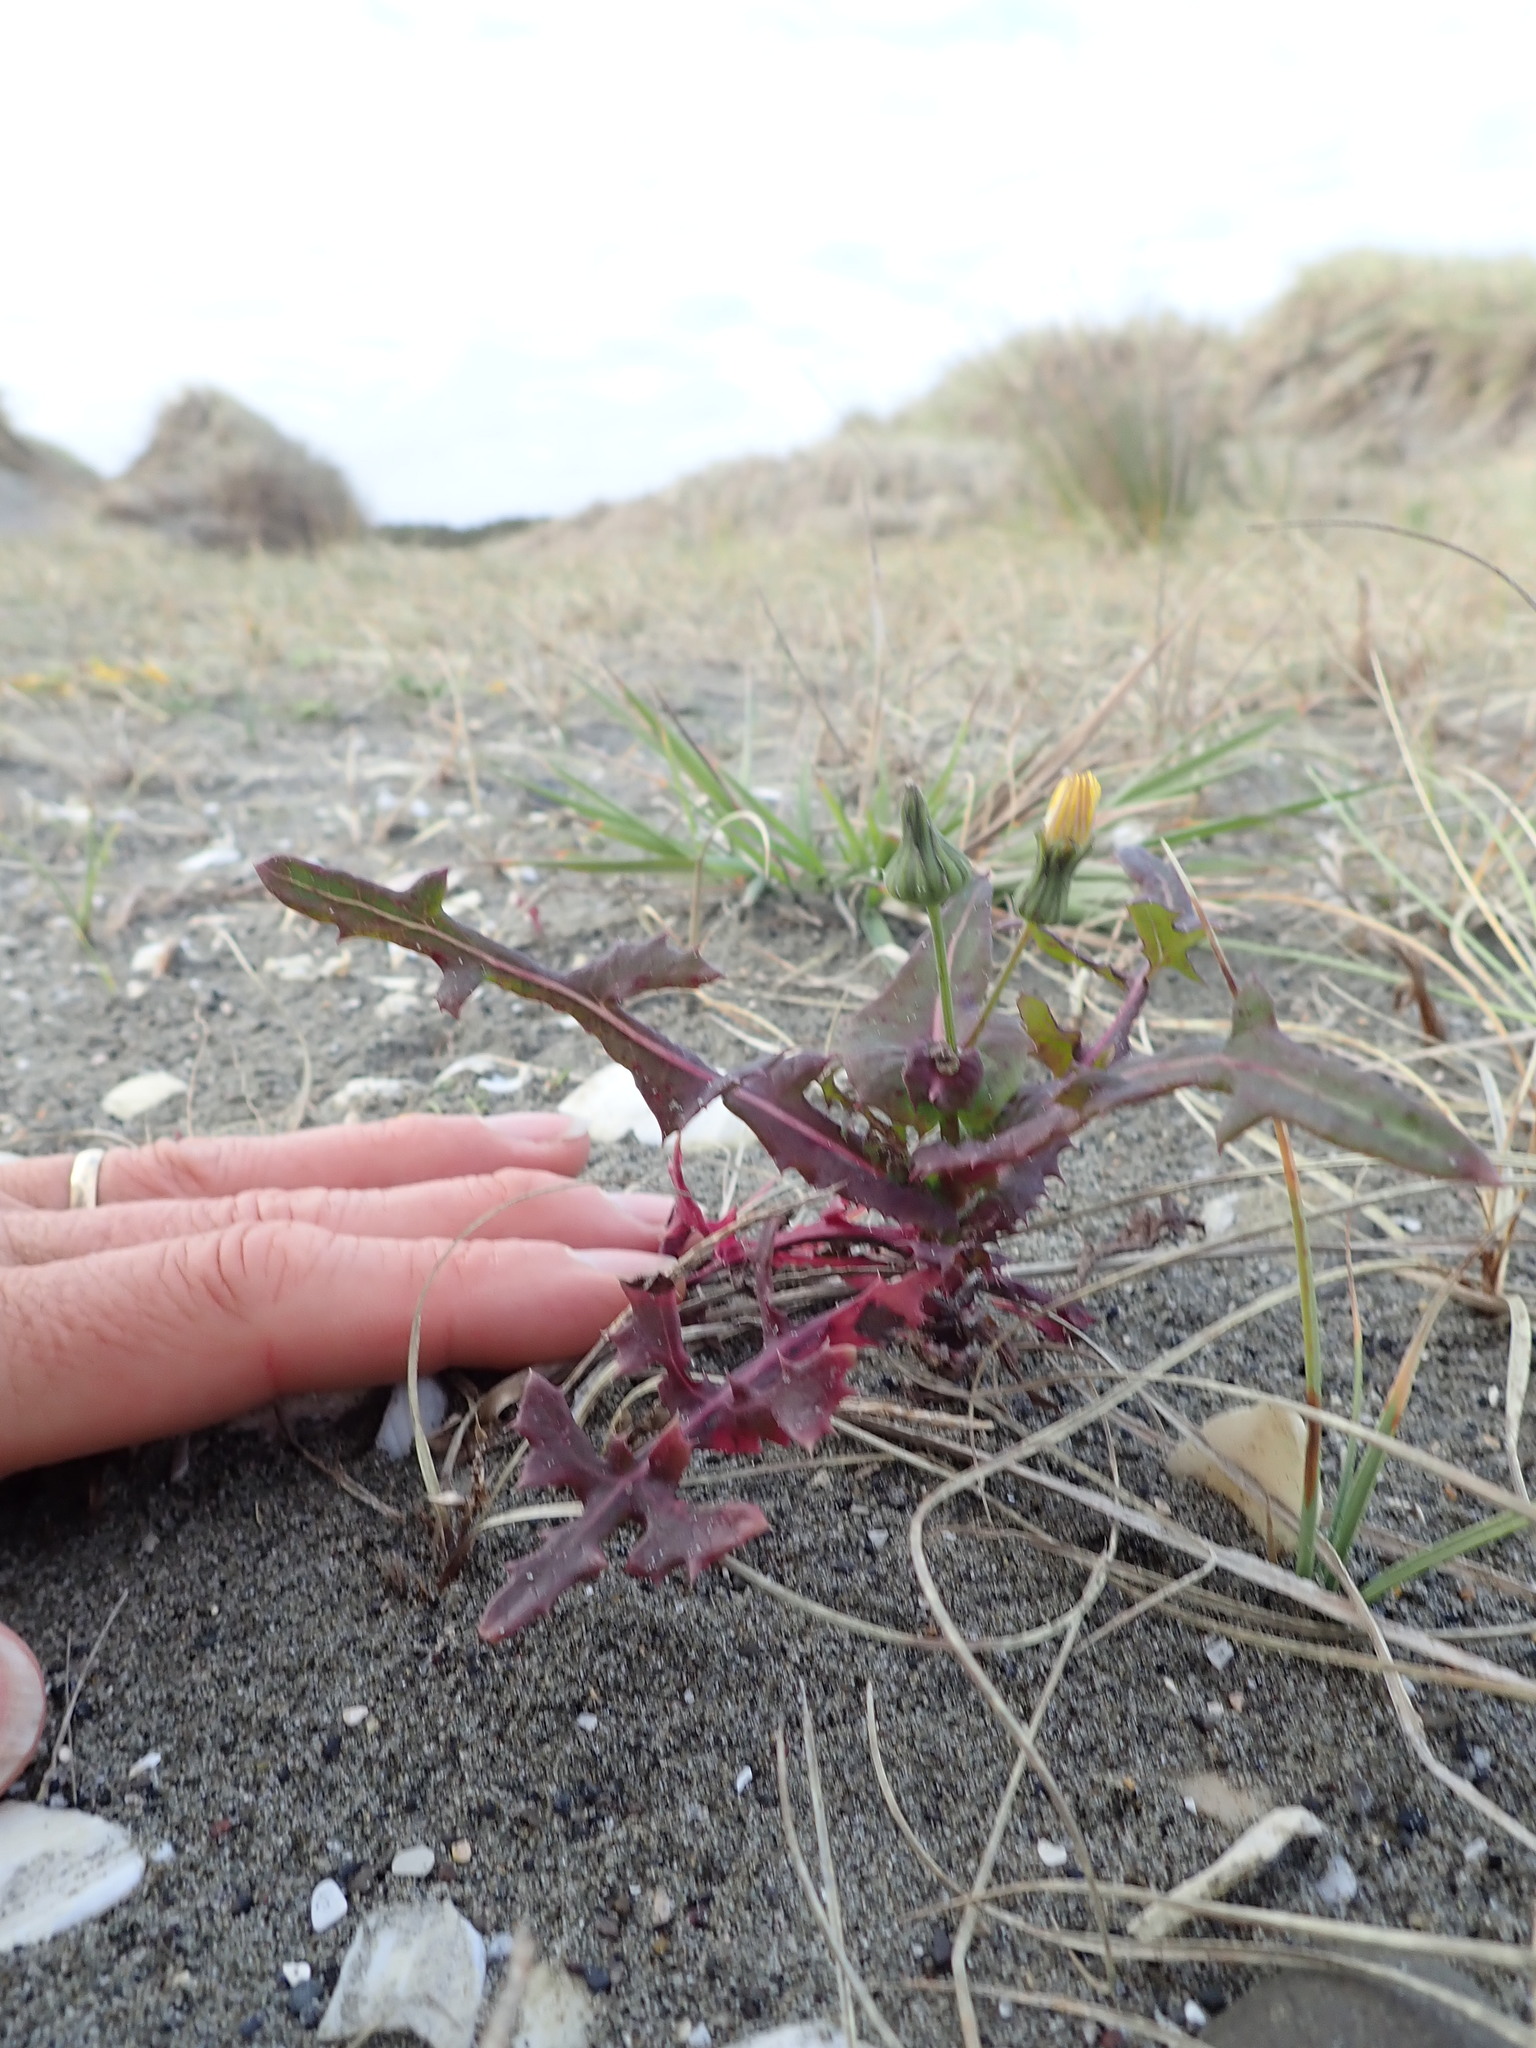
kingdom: Plantae
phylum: Tracheophyta
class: Magnoliopsida
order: Asterales
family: Asteraceae
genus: Sonchus
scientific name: Sonchus oleraceus
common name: Common sowthistle
